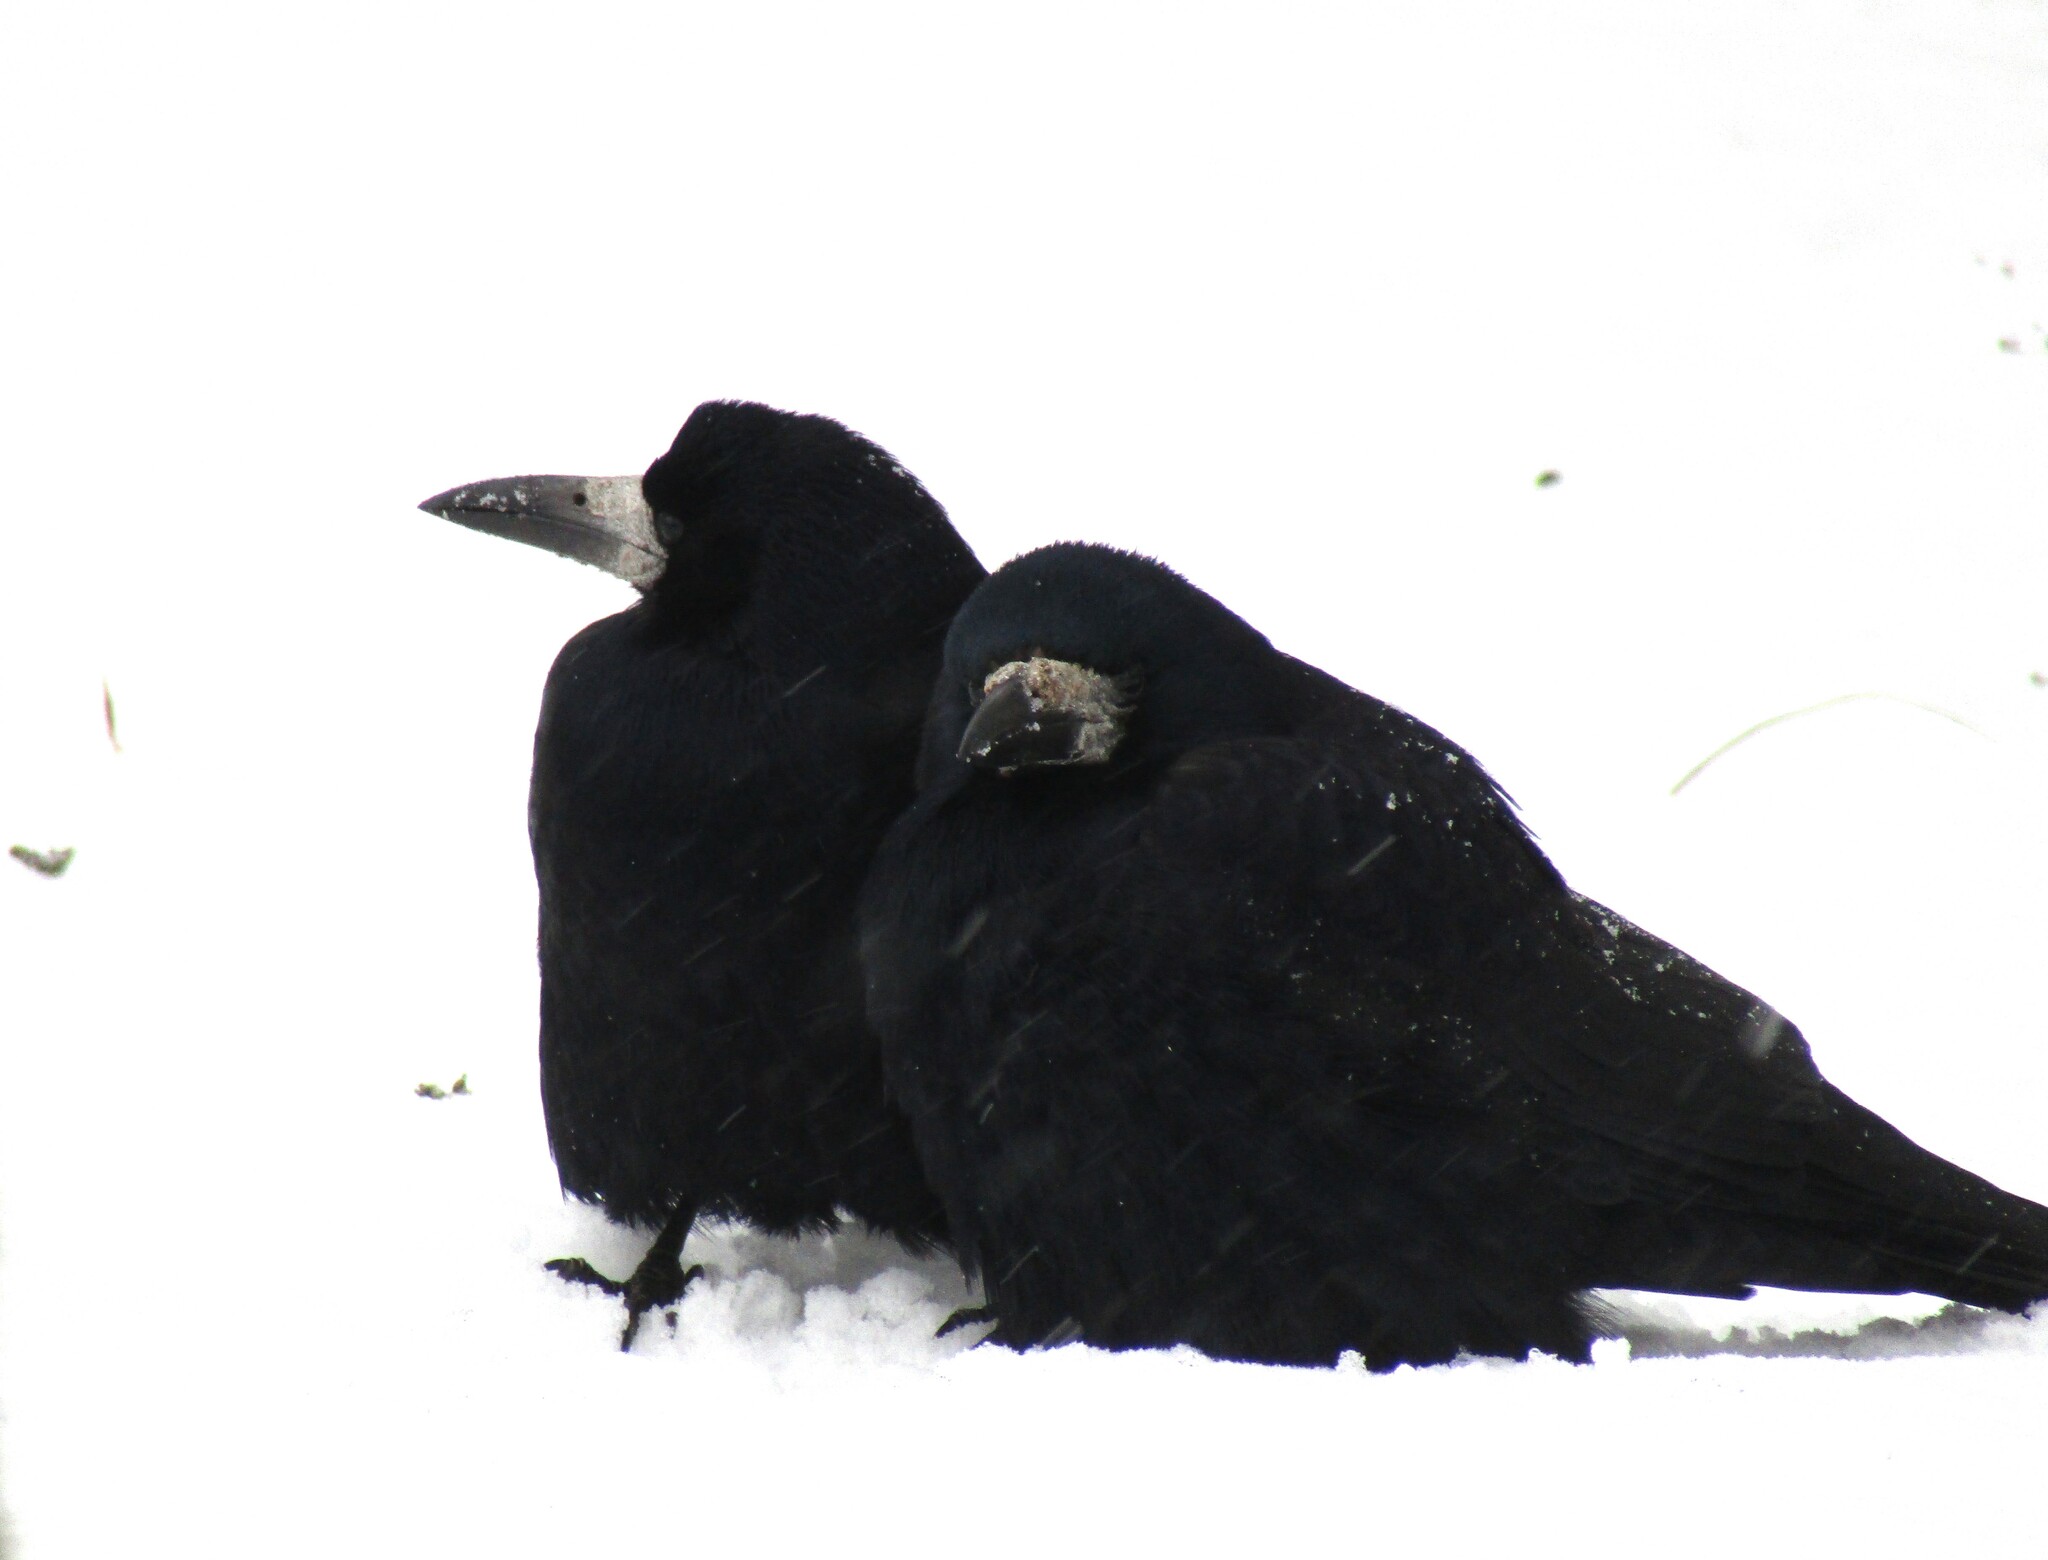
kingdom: Animalia
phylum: Chordata
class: Aves
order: Passeriformes
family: Corvidae
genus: Corvus
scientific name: Corvus frugilegus
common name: Rook
